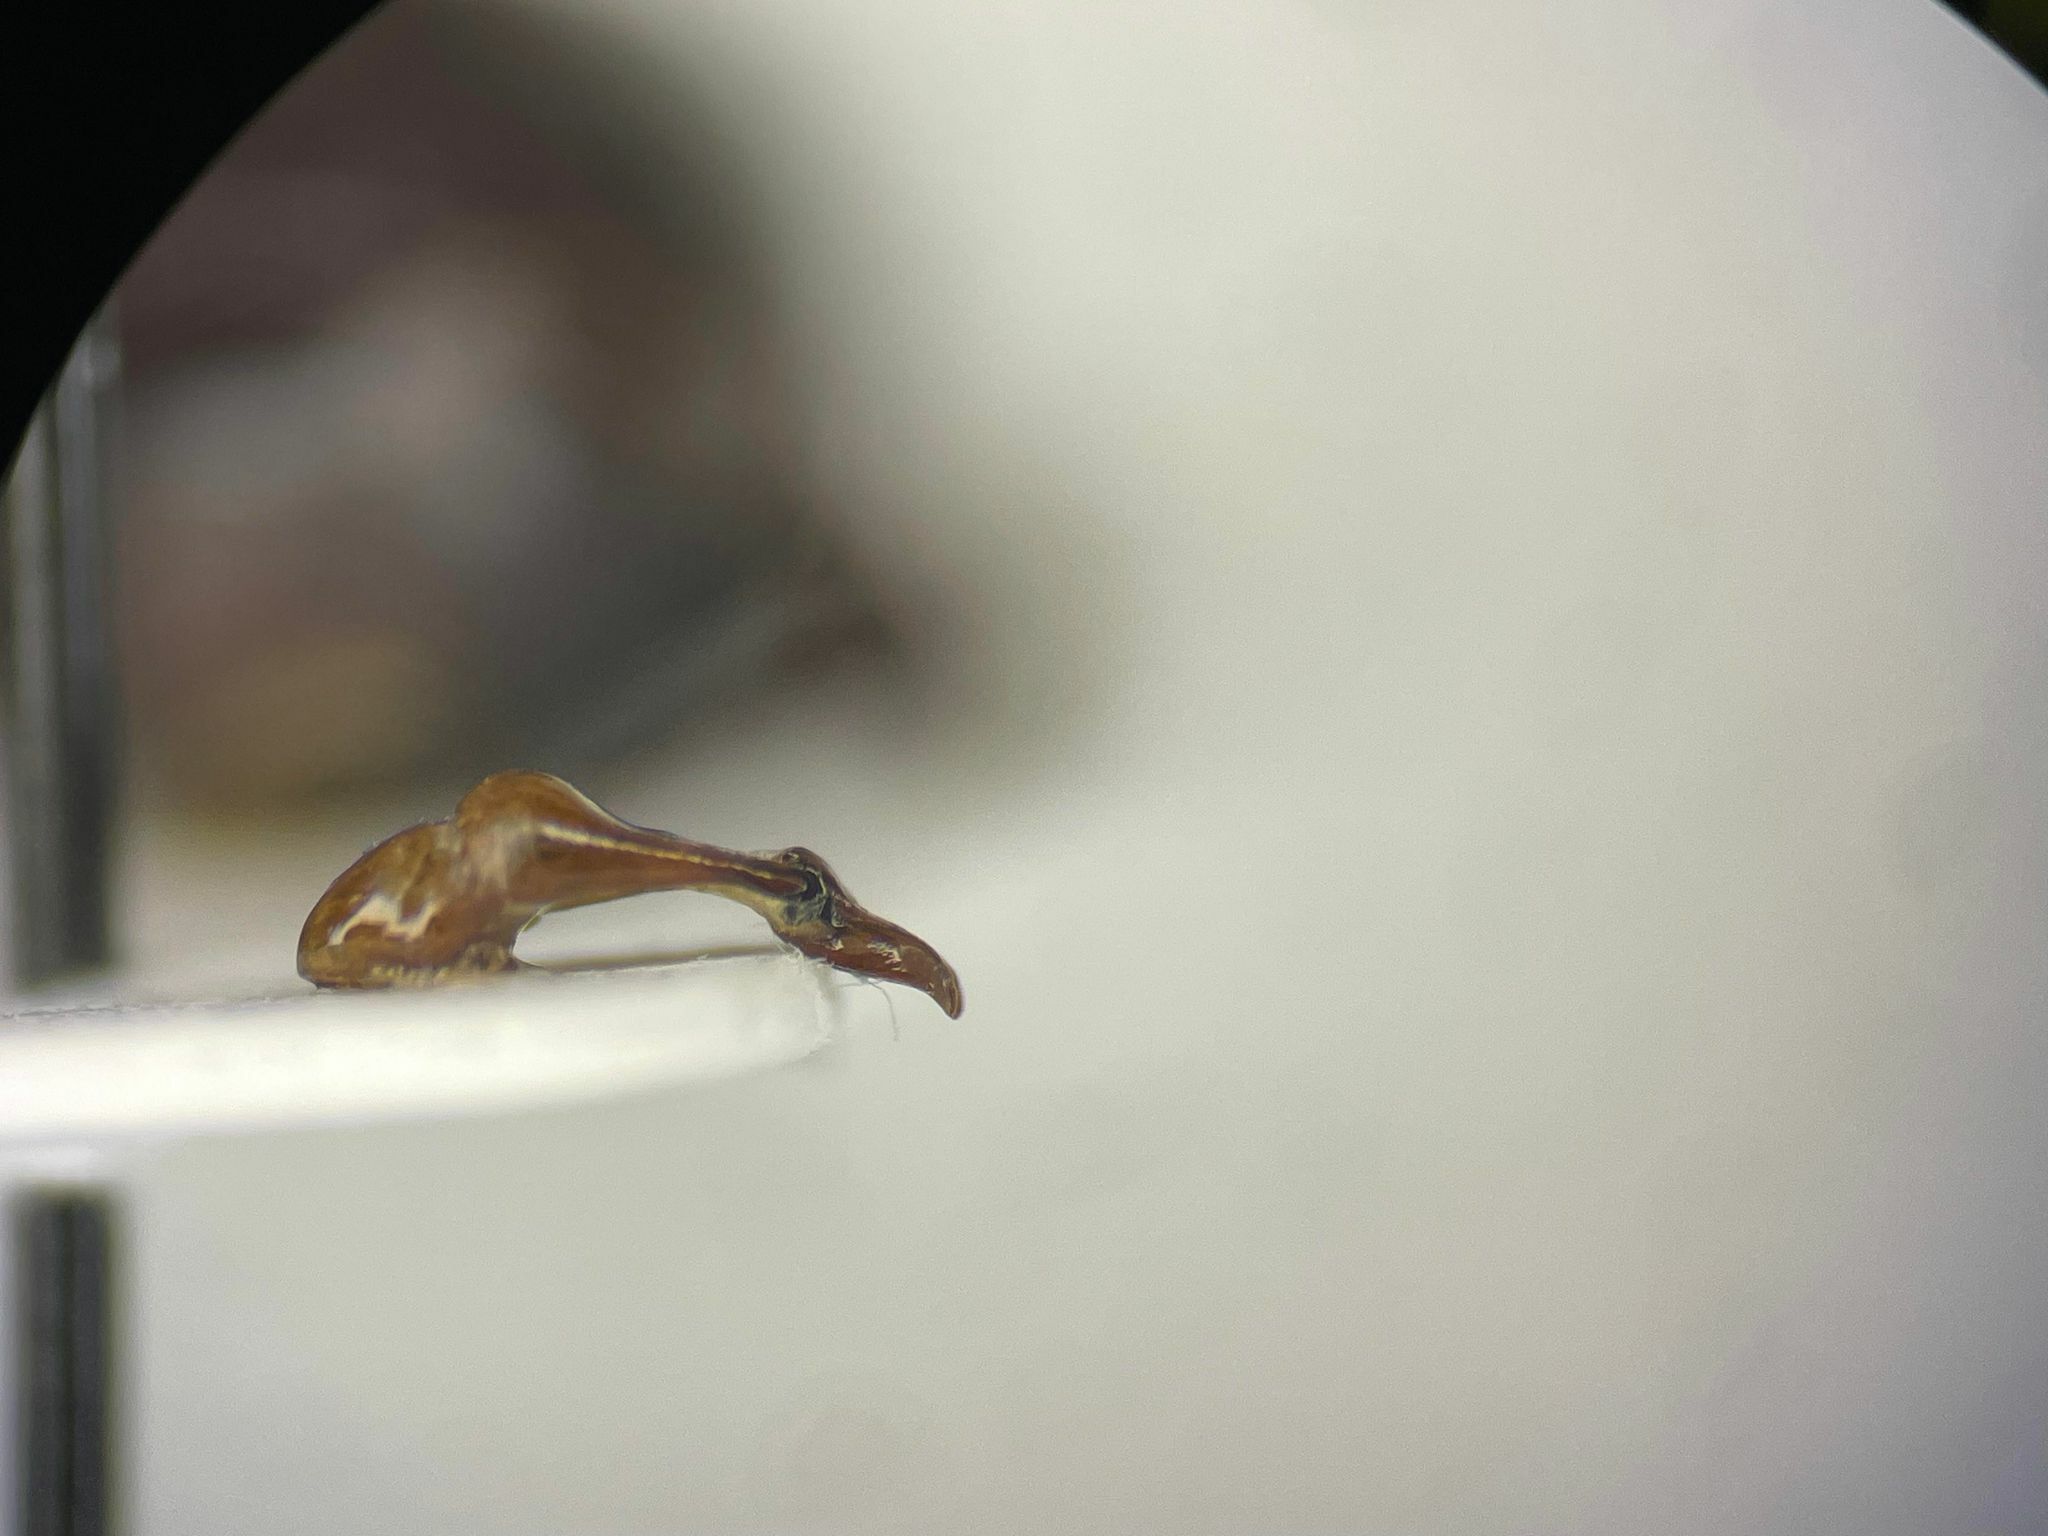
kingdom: Animalia
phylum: Arthropoda
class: Insecta
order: Coleoptera
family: Scarabaeidae
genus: Serica
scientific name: Serica tristis
